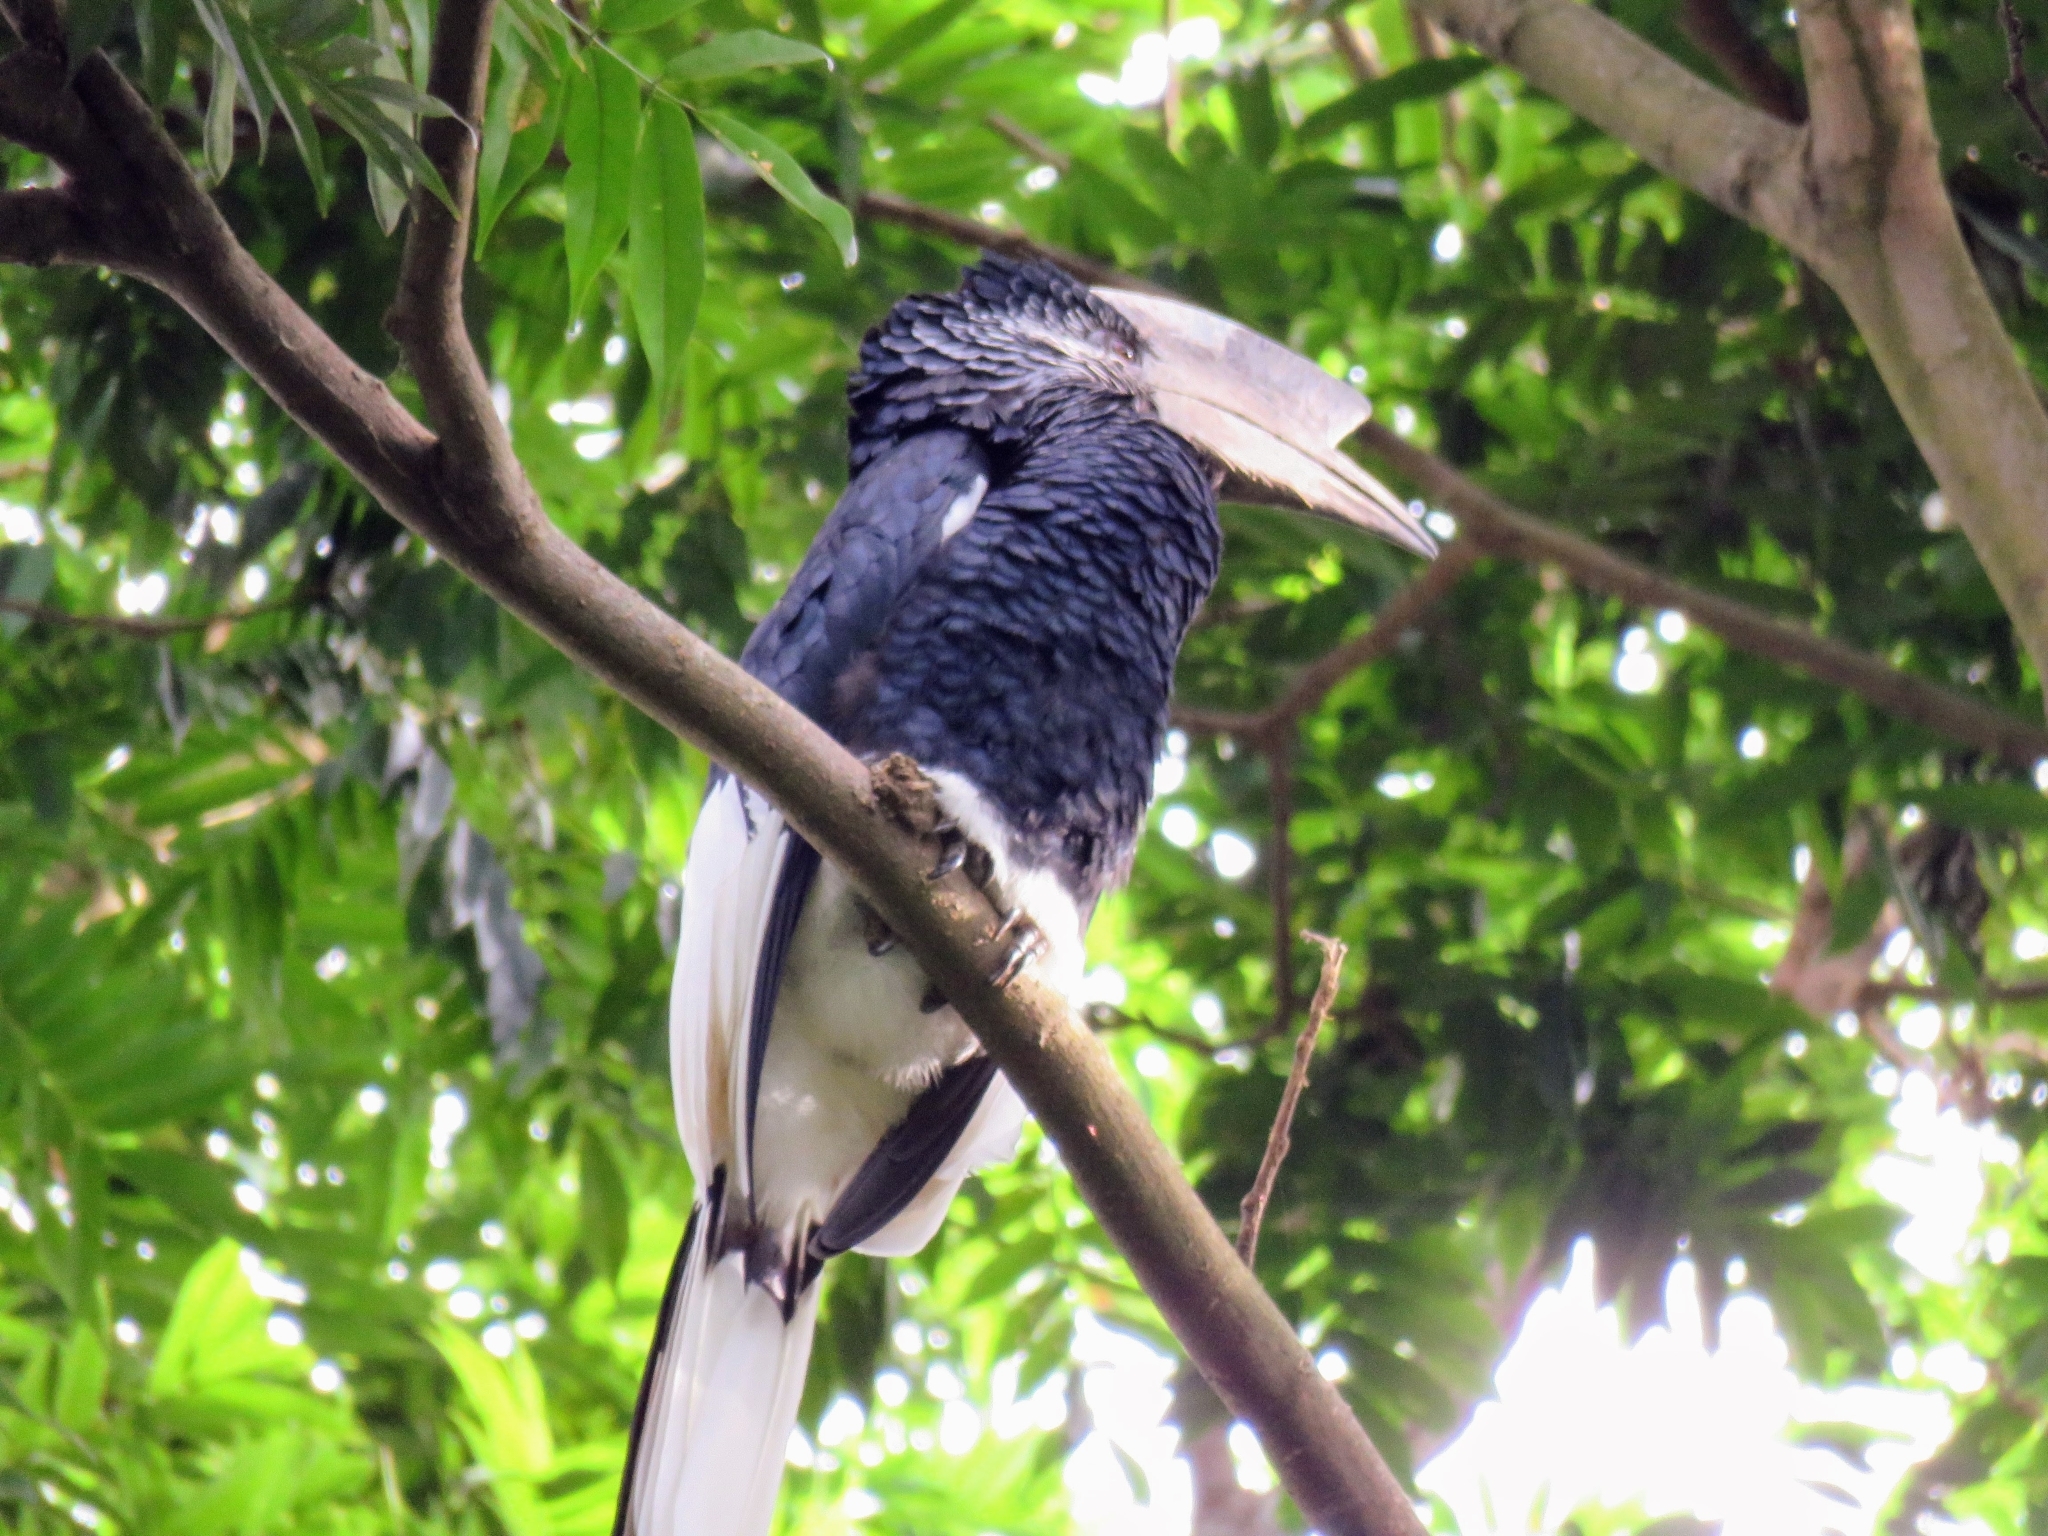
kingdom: Animalia
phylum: Chordata
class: Aves
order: Bucerotiformes
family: Bucerotidae
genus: Bycanistes
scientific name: Bycanistes subcylindricus
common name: Black-and-white-casqued hornbill
